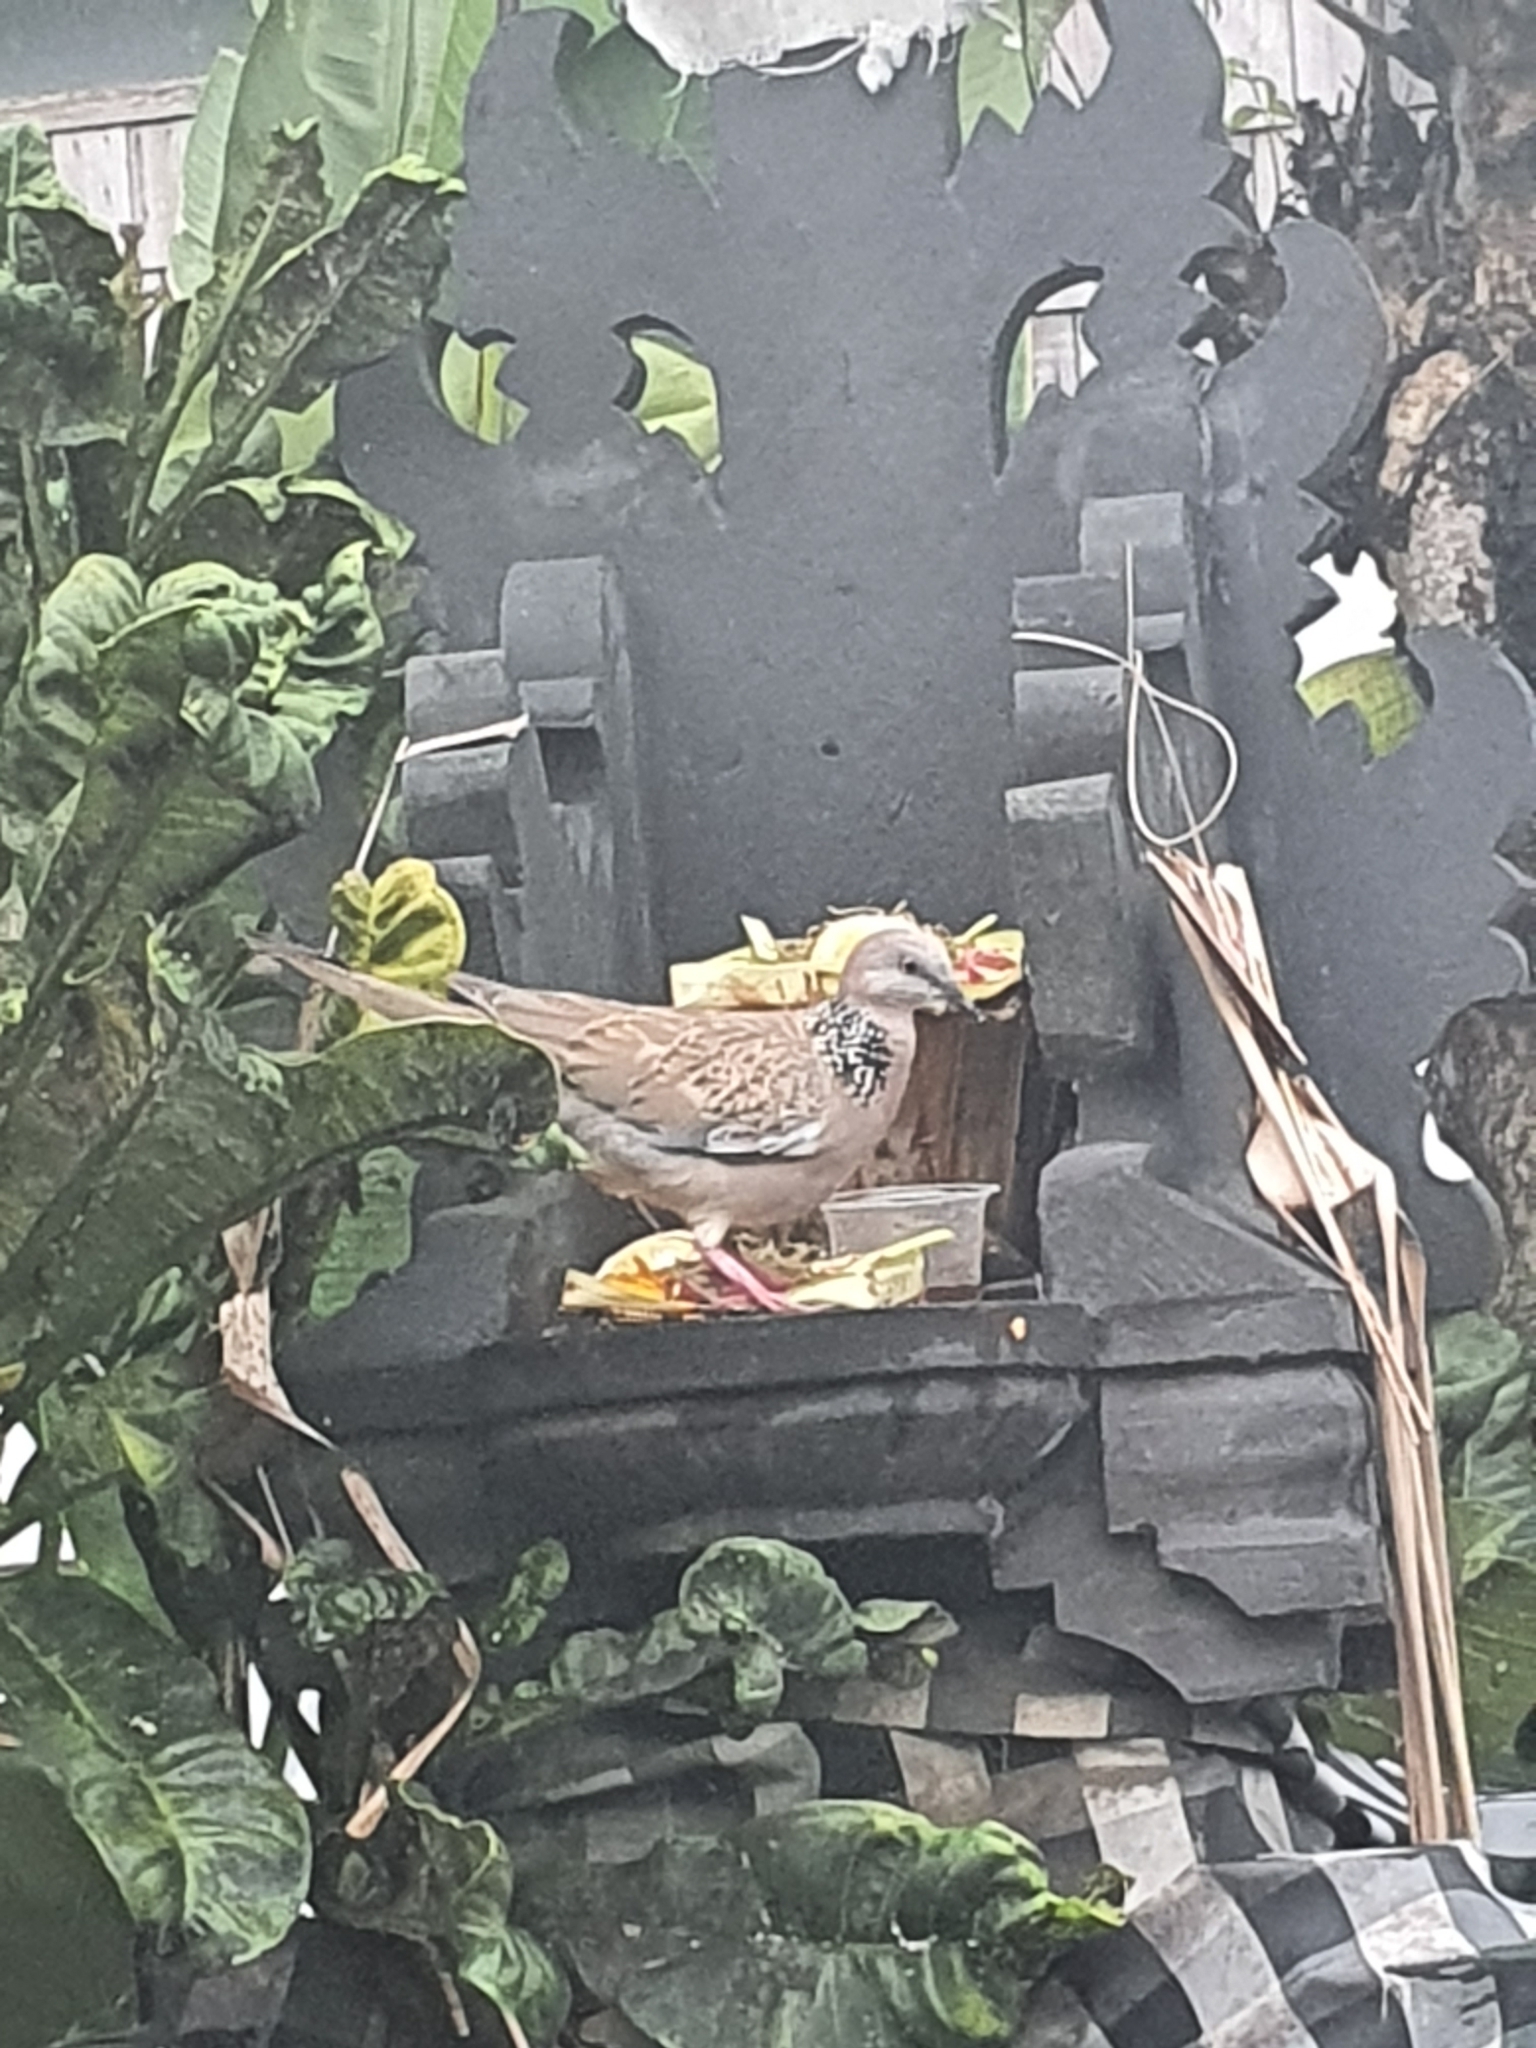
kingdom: Animalia
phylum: Chordata
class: Aves
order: Columbiformes
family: Columbidae
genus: Spilopelia
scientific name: Spilopelia chinensis
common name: Spotted dove
